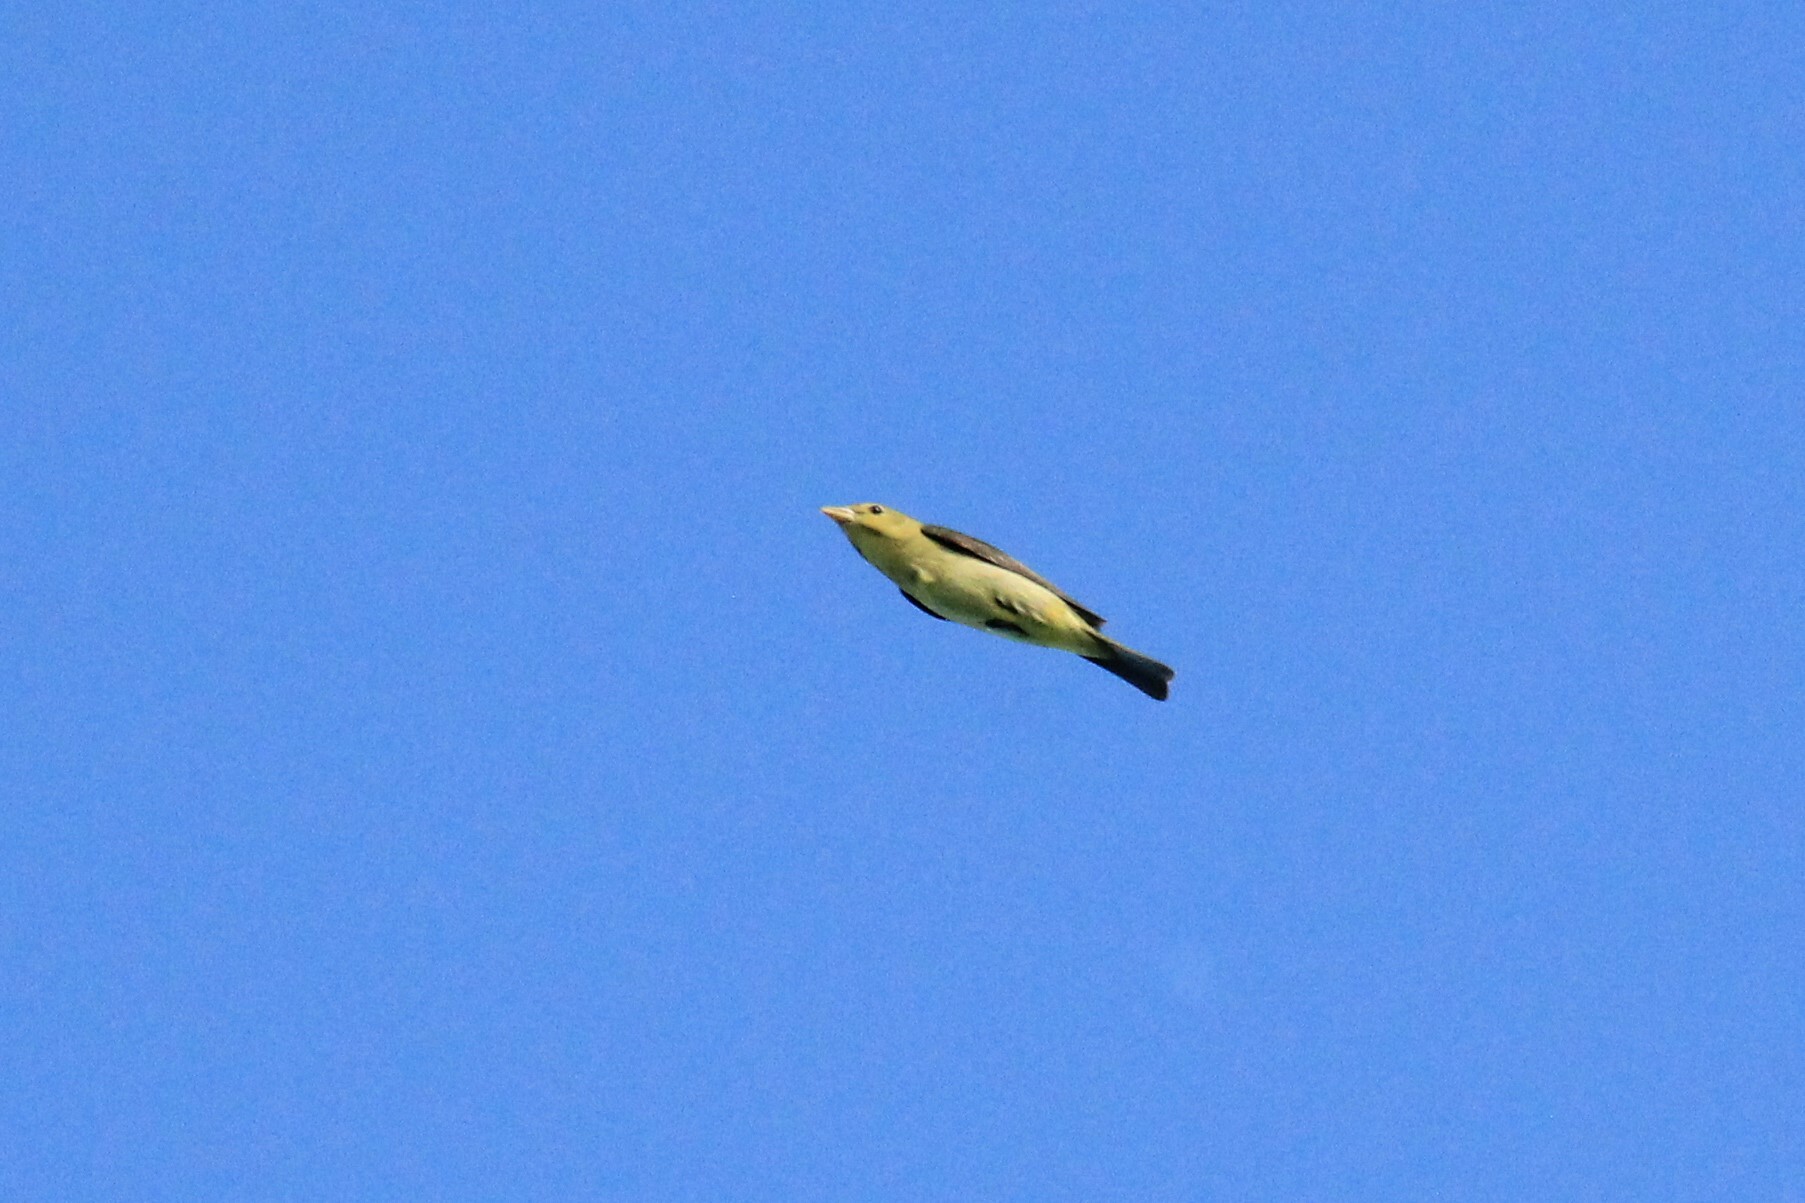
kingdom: Animalia
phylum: Chordata
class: Aves
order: Passeriformes
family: Cardinalidae
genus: Piranga
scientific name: Piranga olivacea
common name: Scarlet tanager
